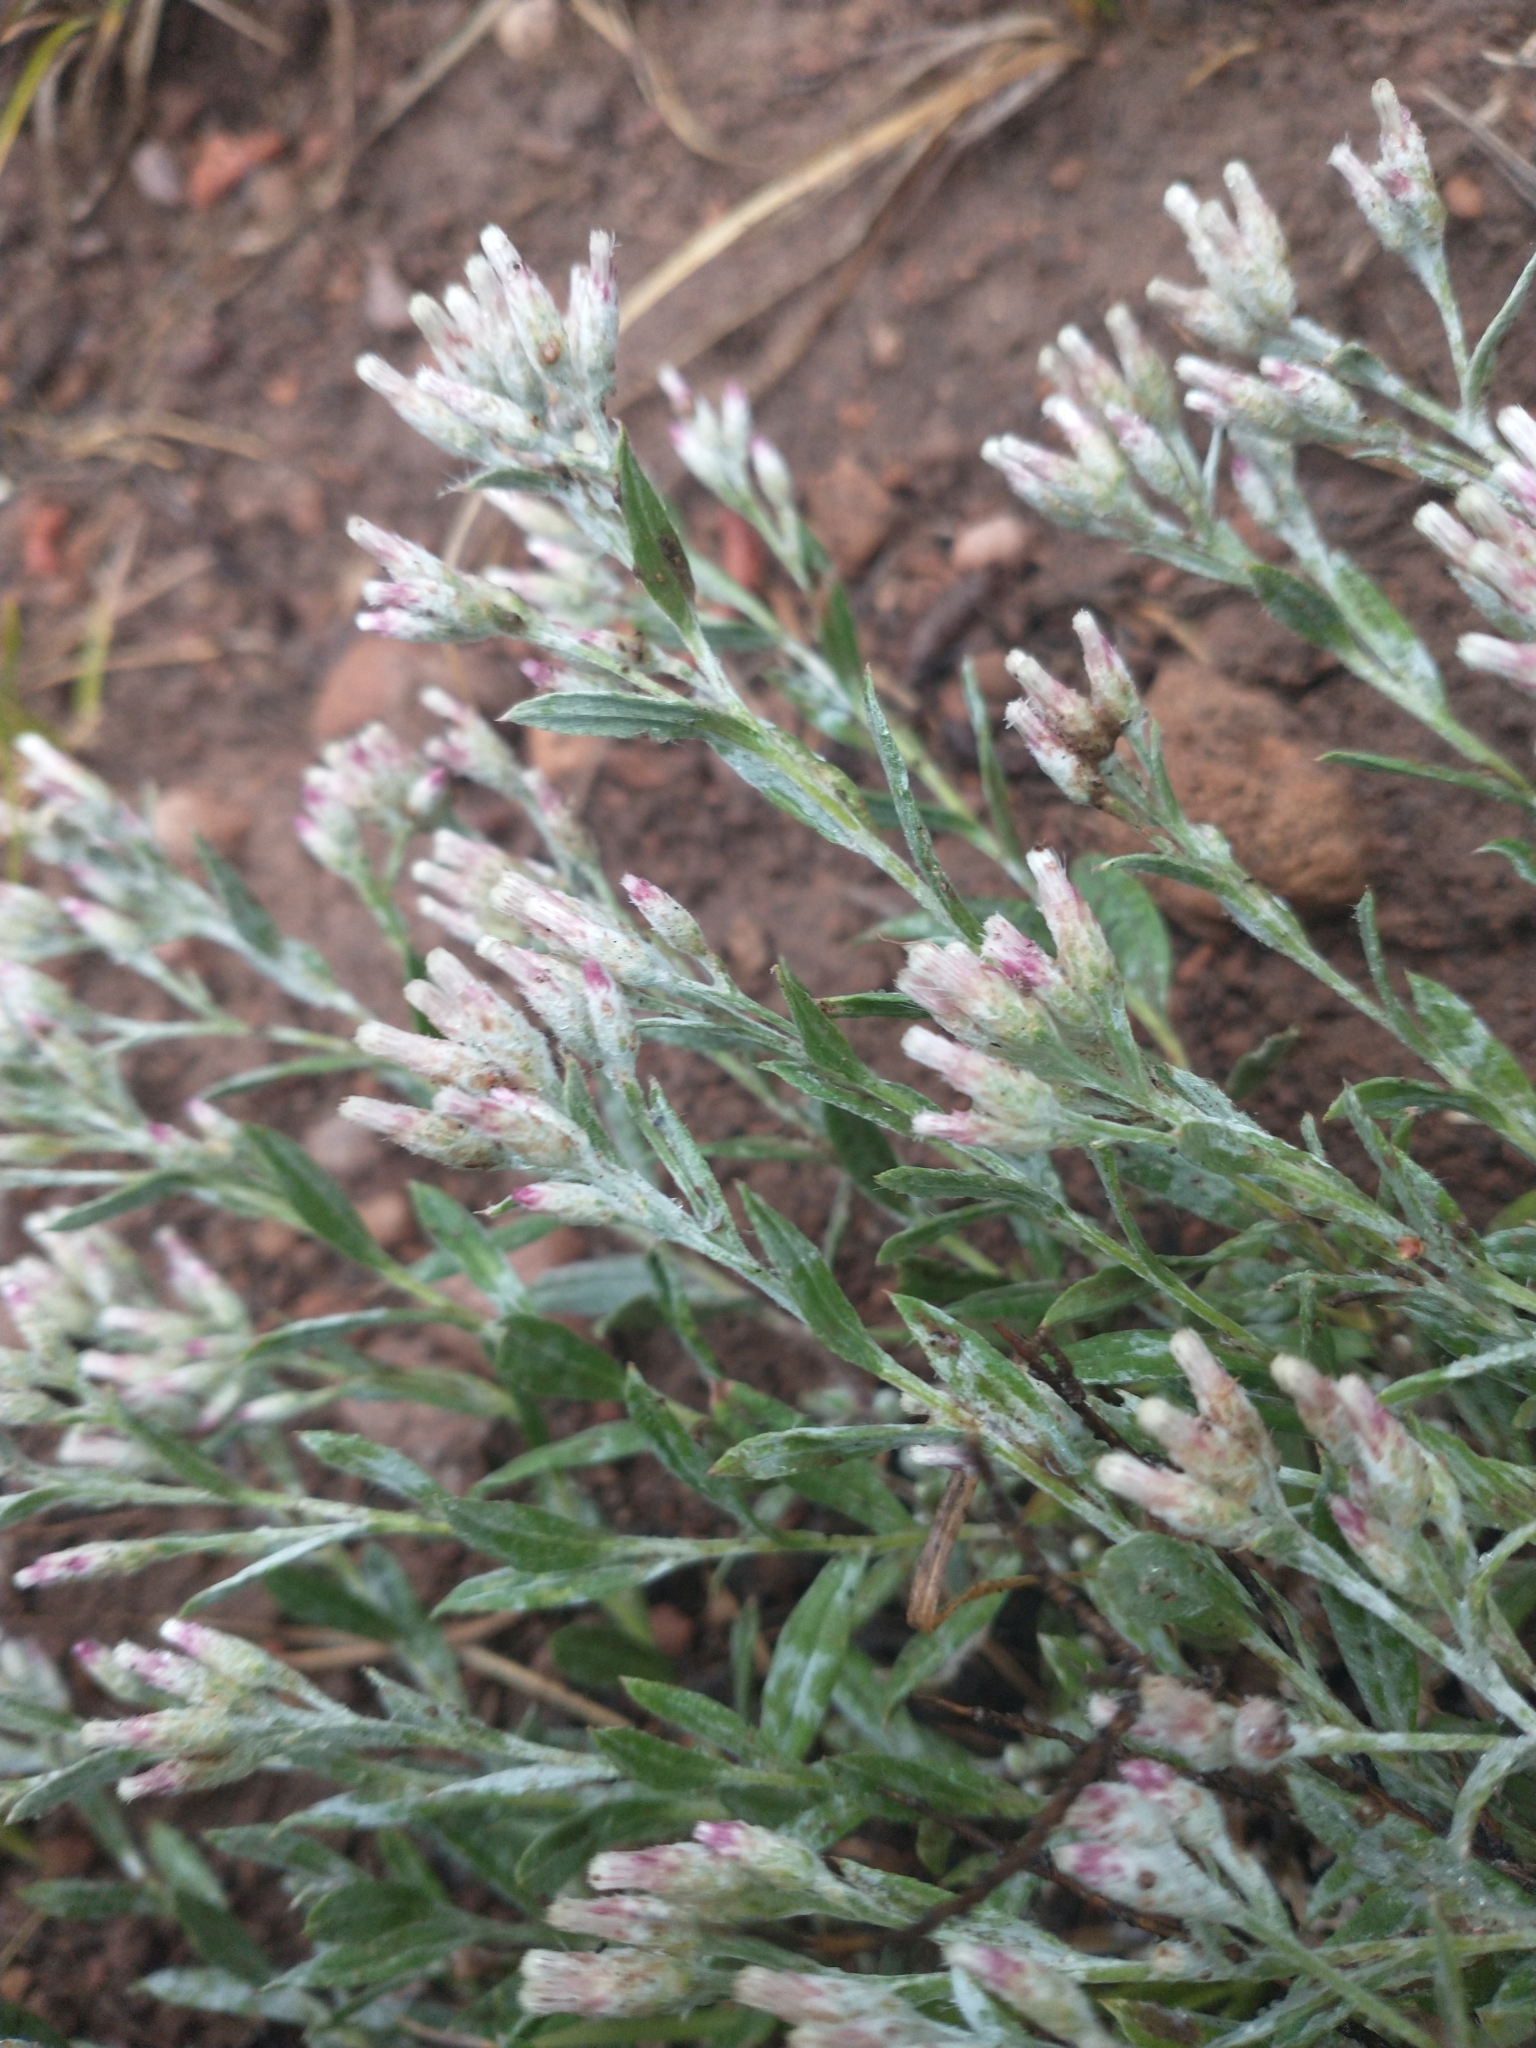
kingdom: Plantae
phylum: Tracheophyta
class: Magnoliopsida
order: Asterales
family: Asteraceae
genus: Antennaria
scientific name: Antennaria geyeri
